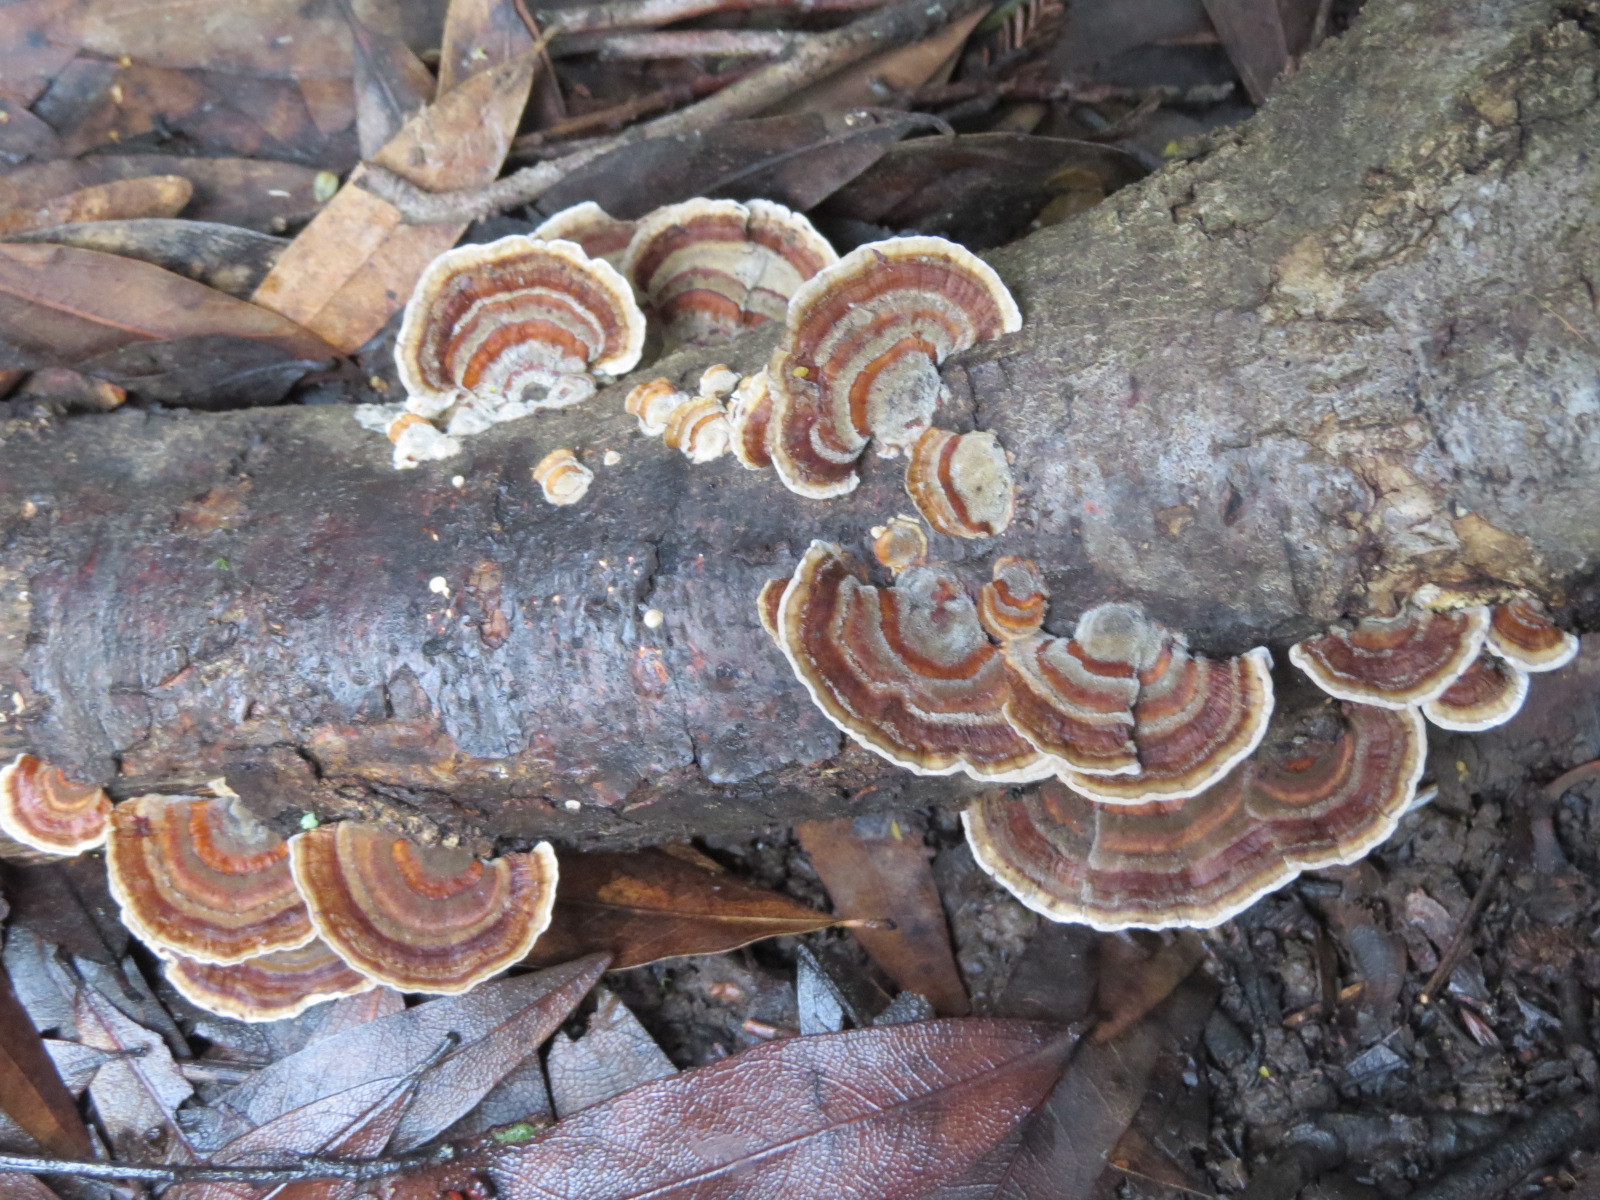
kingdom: Fungi
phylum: Basidiomycota
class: Agaricomycetes
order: Polyporales
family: Polyporaceae
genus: Trametes
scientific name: Trametes versicolor
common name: Turkeytail
